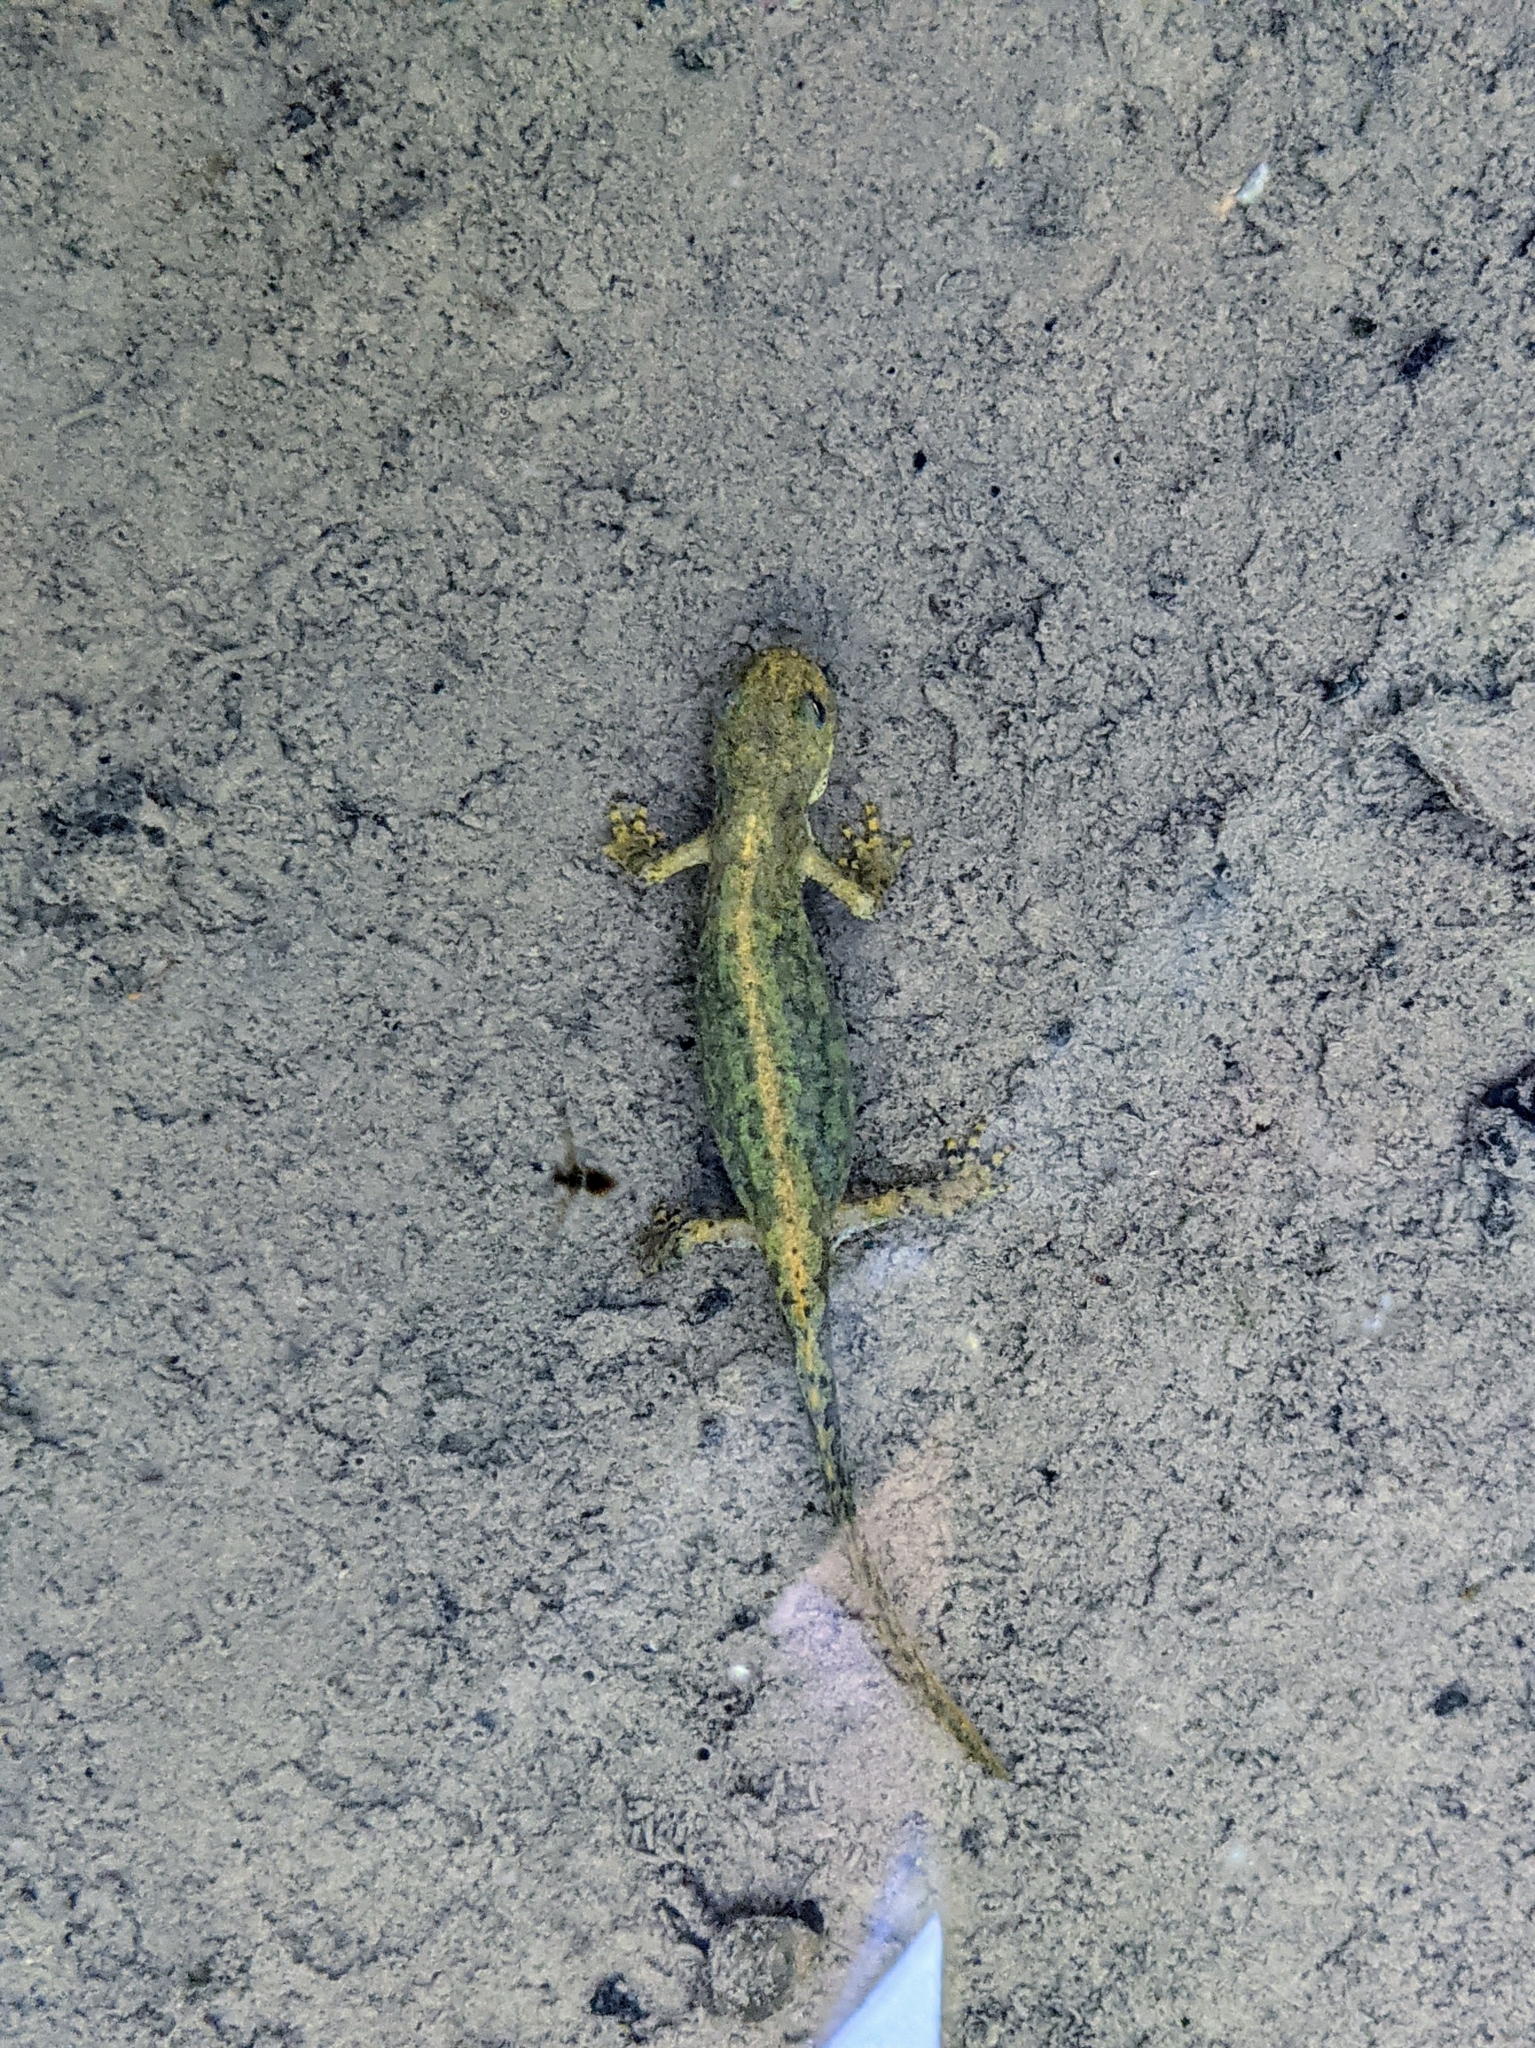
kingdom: Animalia
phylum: Chordata
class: Amphibia
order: Caudata
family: Salamandridae
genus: Ichthyosaura
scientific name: Ichthyosaura alpestris
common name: Alpine newt
